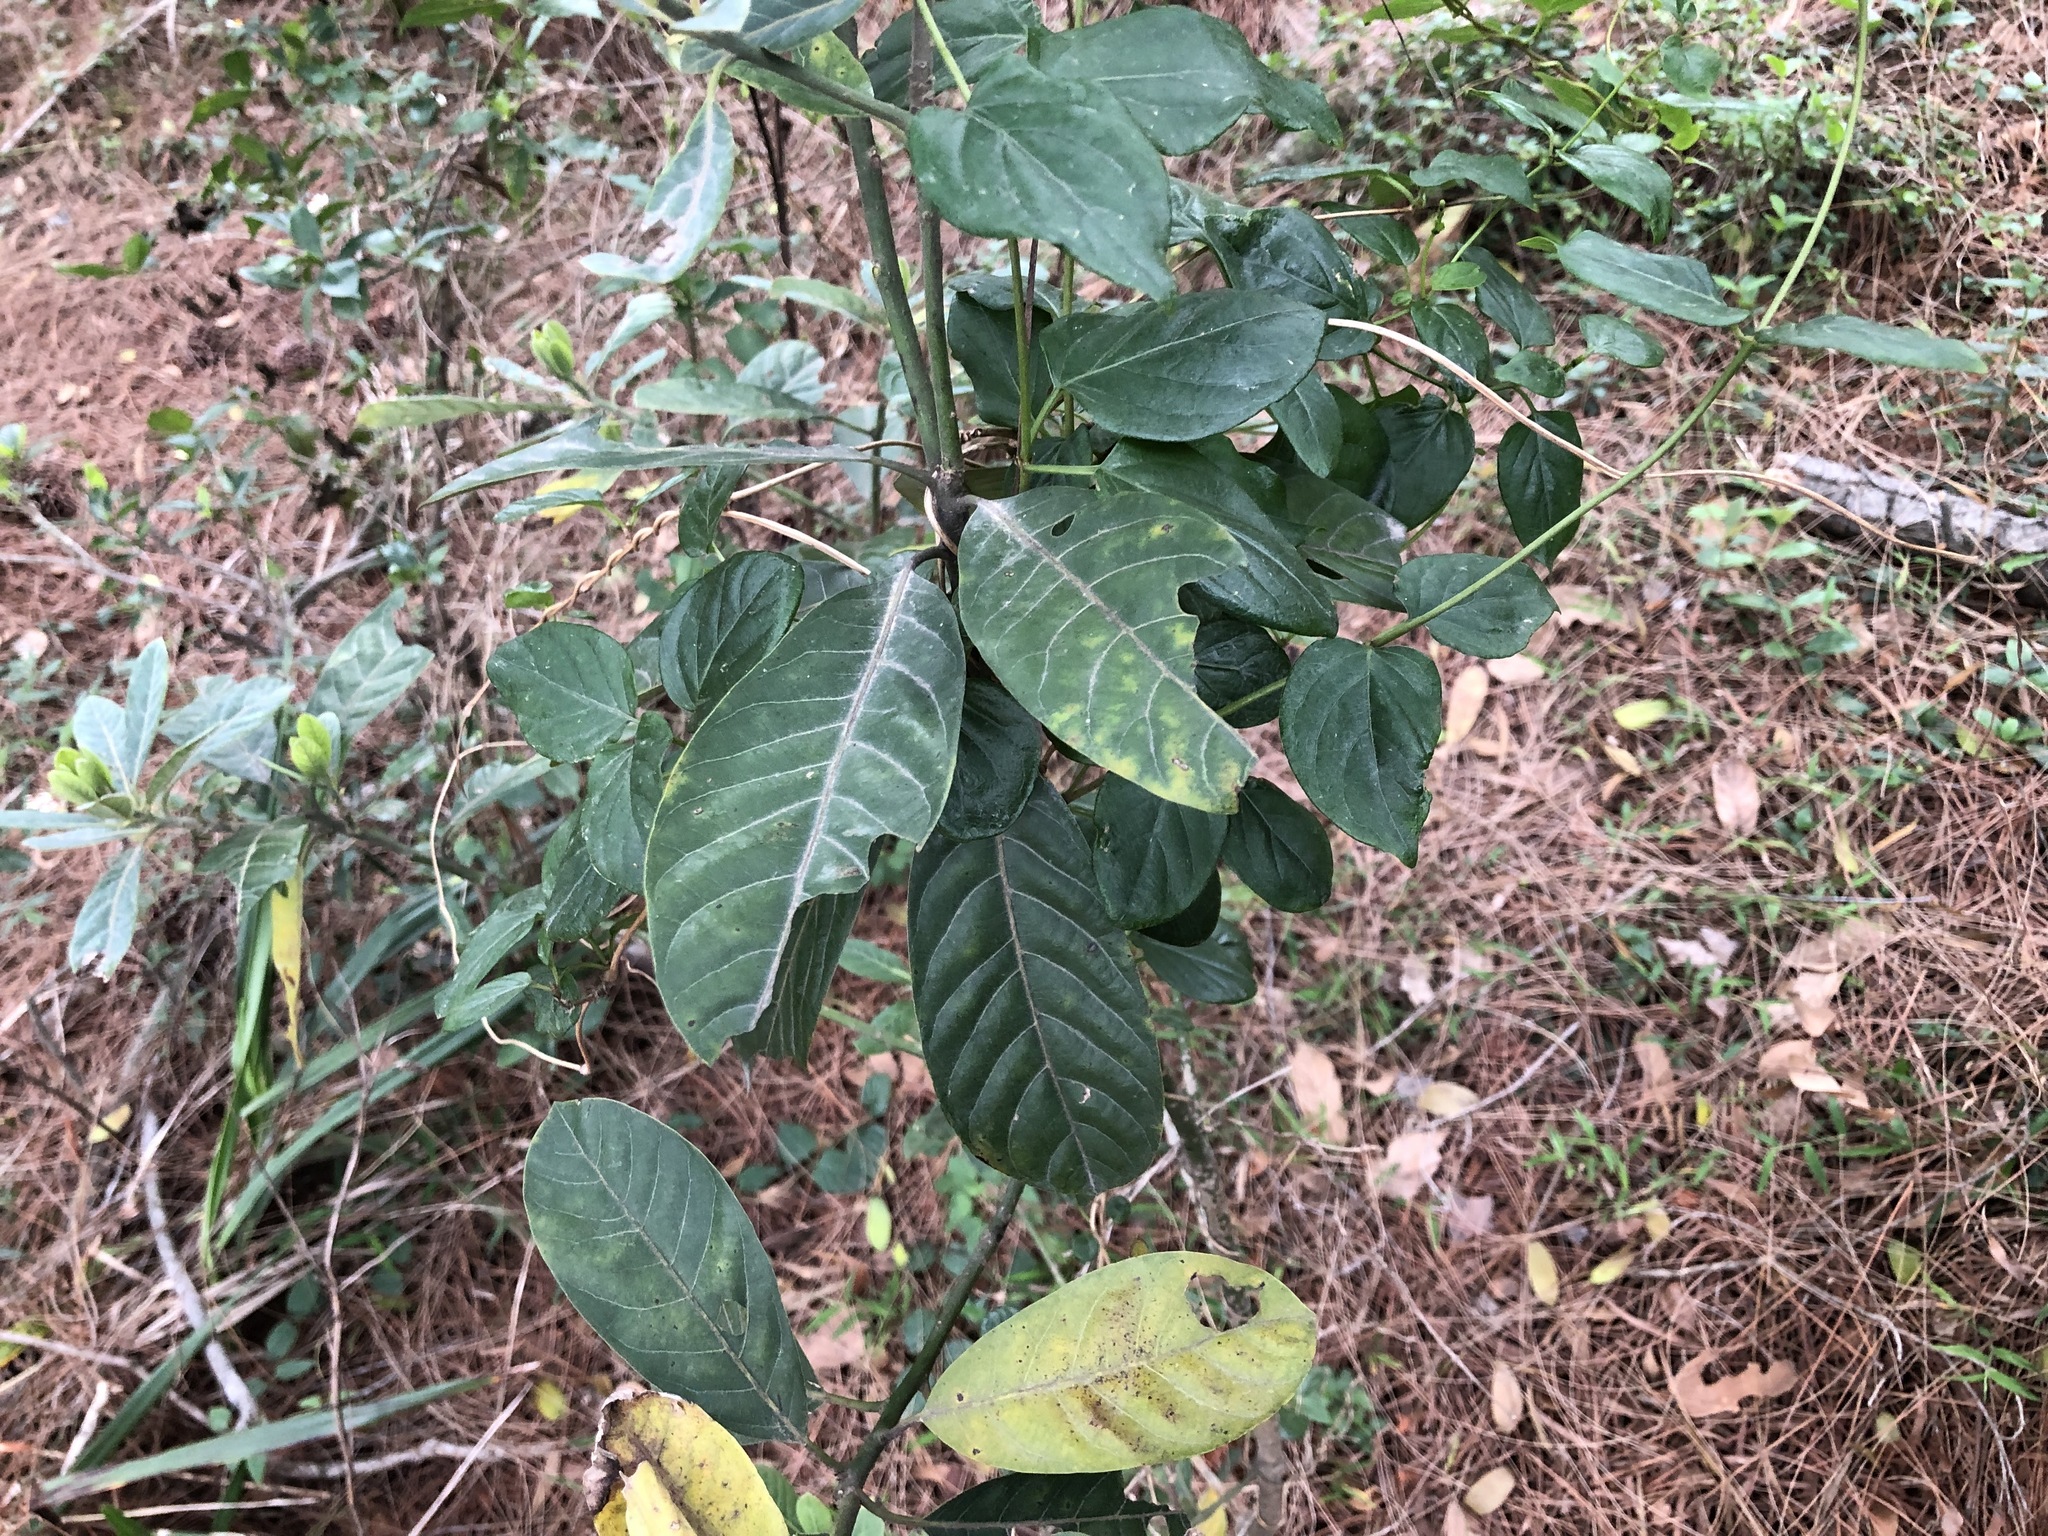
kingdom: Plantae
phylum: Tracheophyta
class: Magnoliopsida
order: Laurales
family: Lauraceae
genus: Litsea
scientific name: Litsea glutinosa
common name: Indian-laurel
